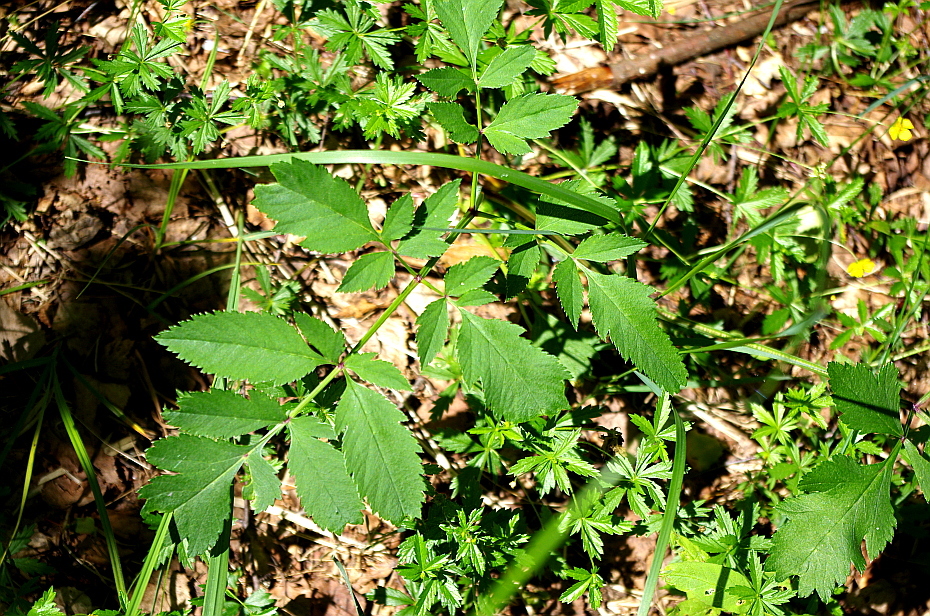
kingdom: Plantae
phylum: Tracheophyta
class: Magnoliopsida
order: Apiales
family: Apiaceae
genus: Angelica
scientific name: Angelica sylvestris
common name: Wild angelica
